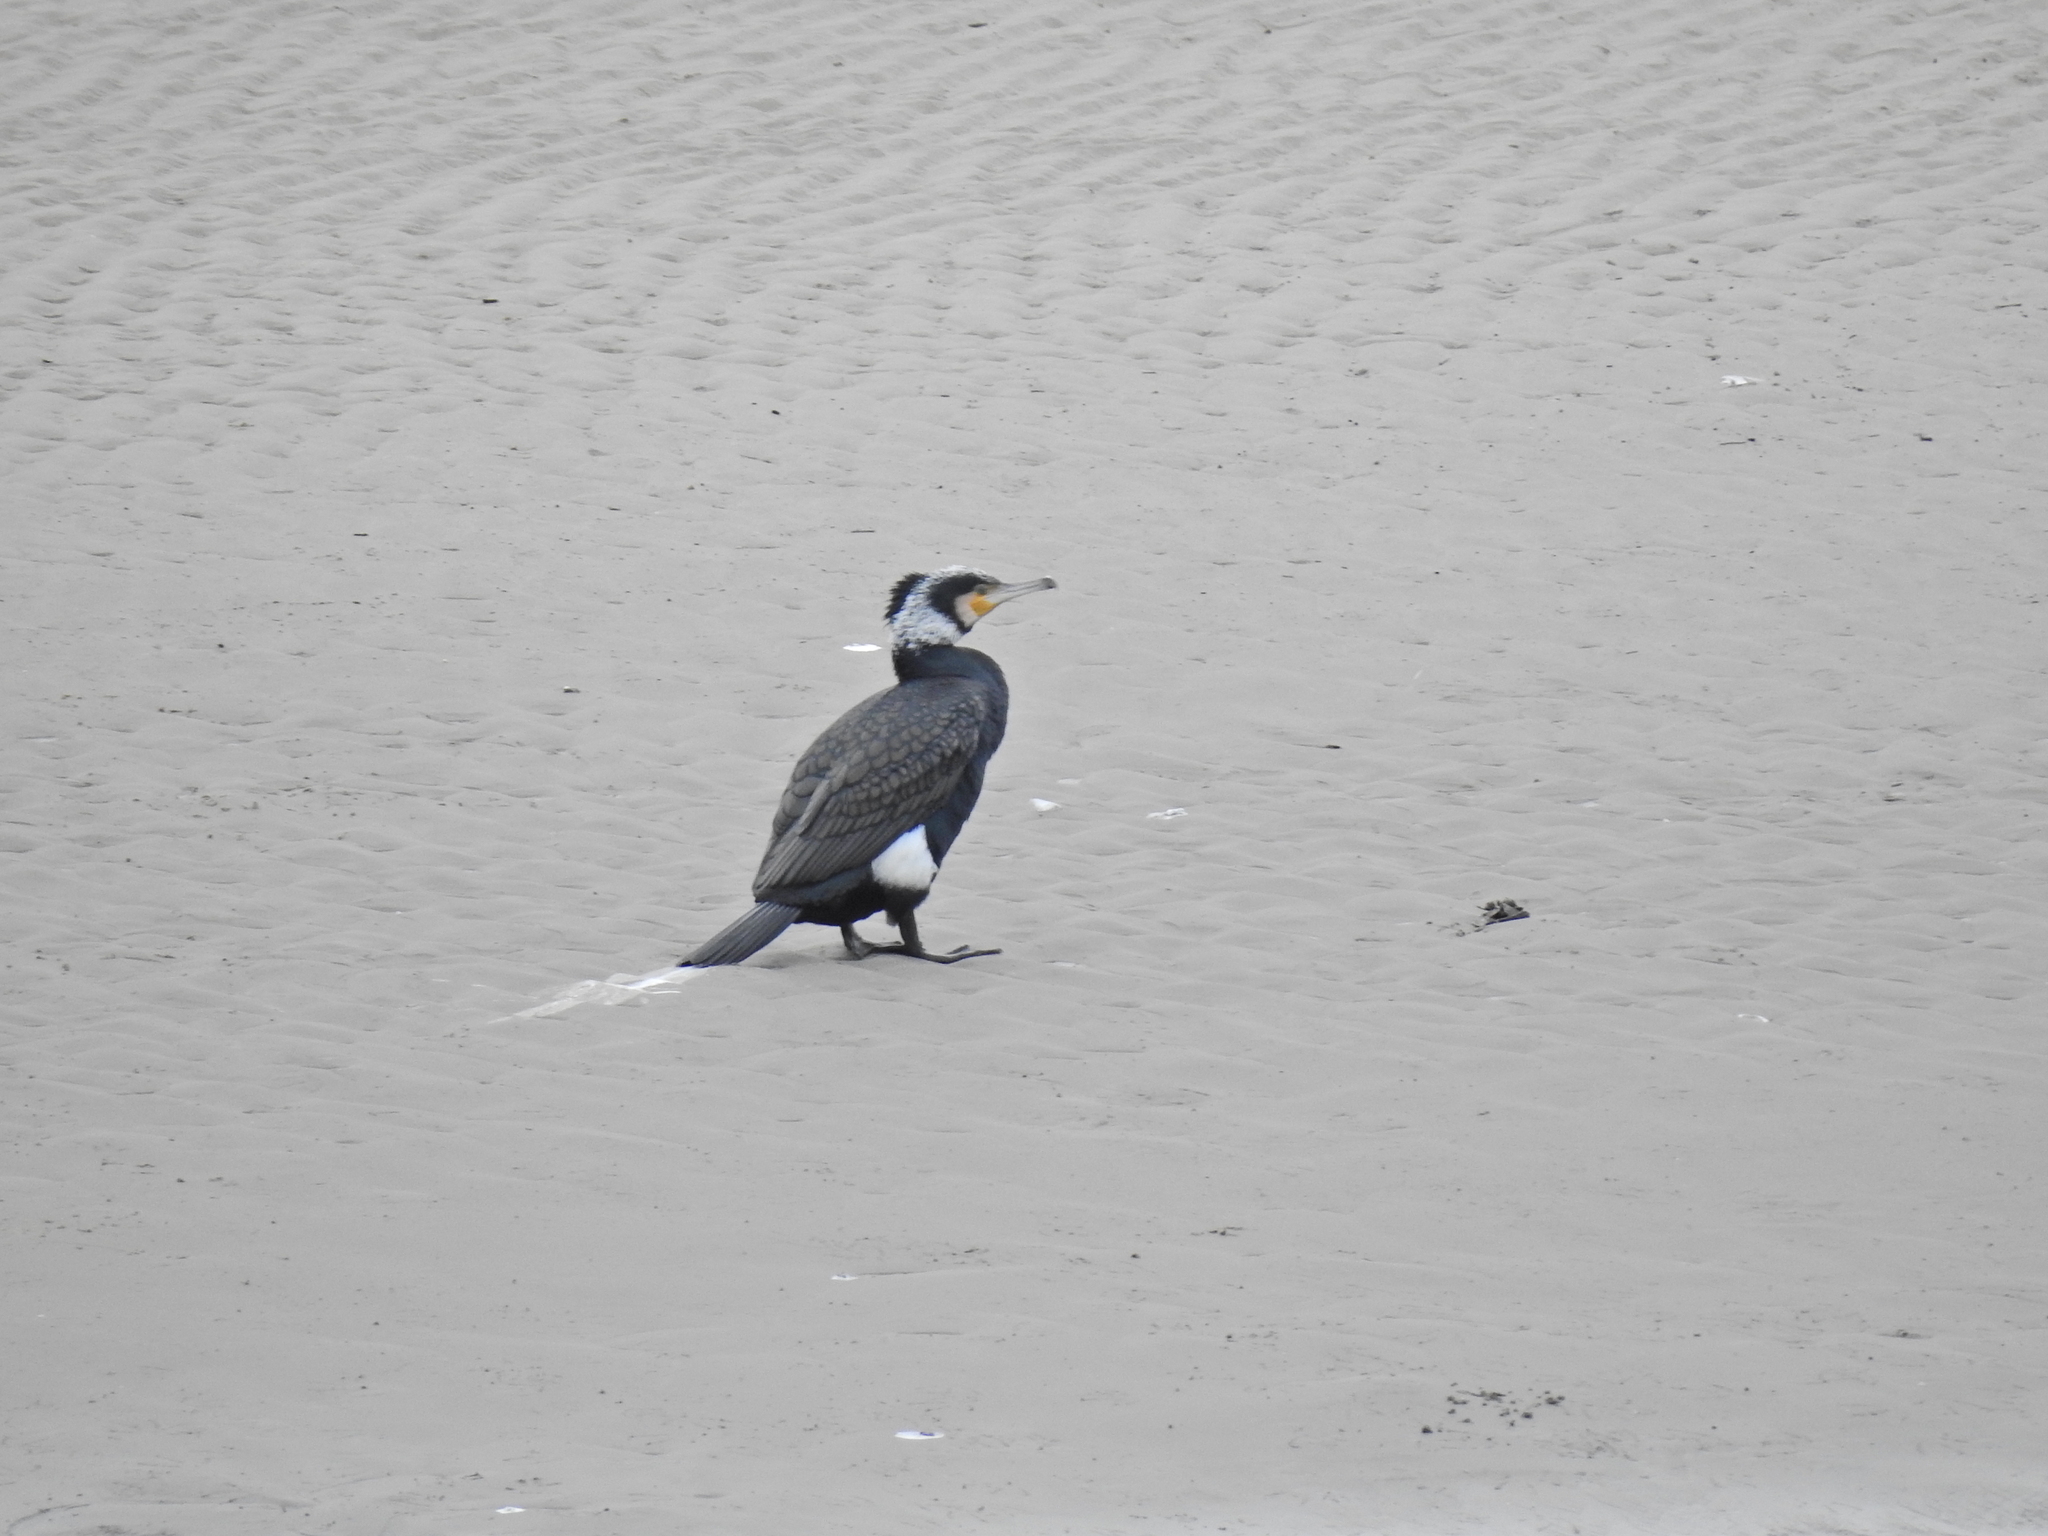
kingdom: Animalia
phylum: Chordata
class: Aves
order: Suliformes
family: Phalacrocoracidae
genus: Phalacrocorax
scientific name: Phalacrocorax carbo
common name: Great cormorant
